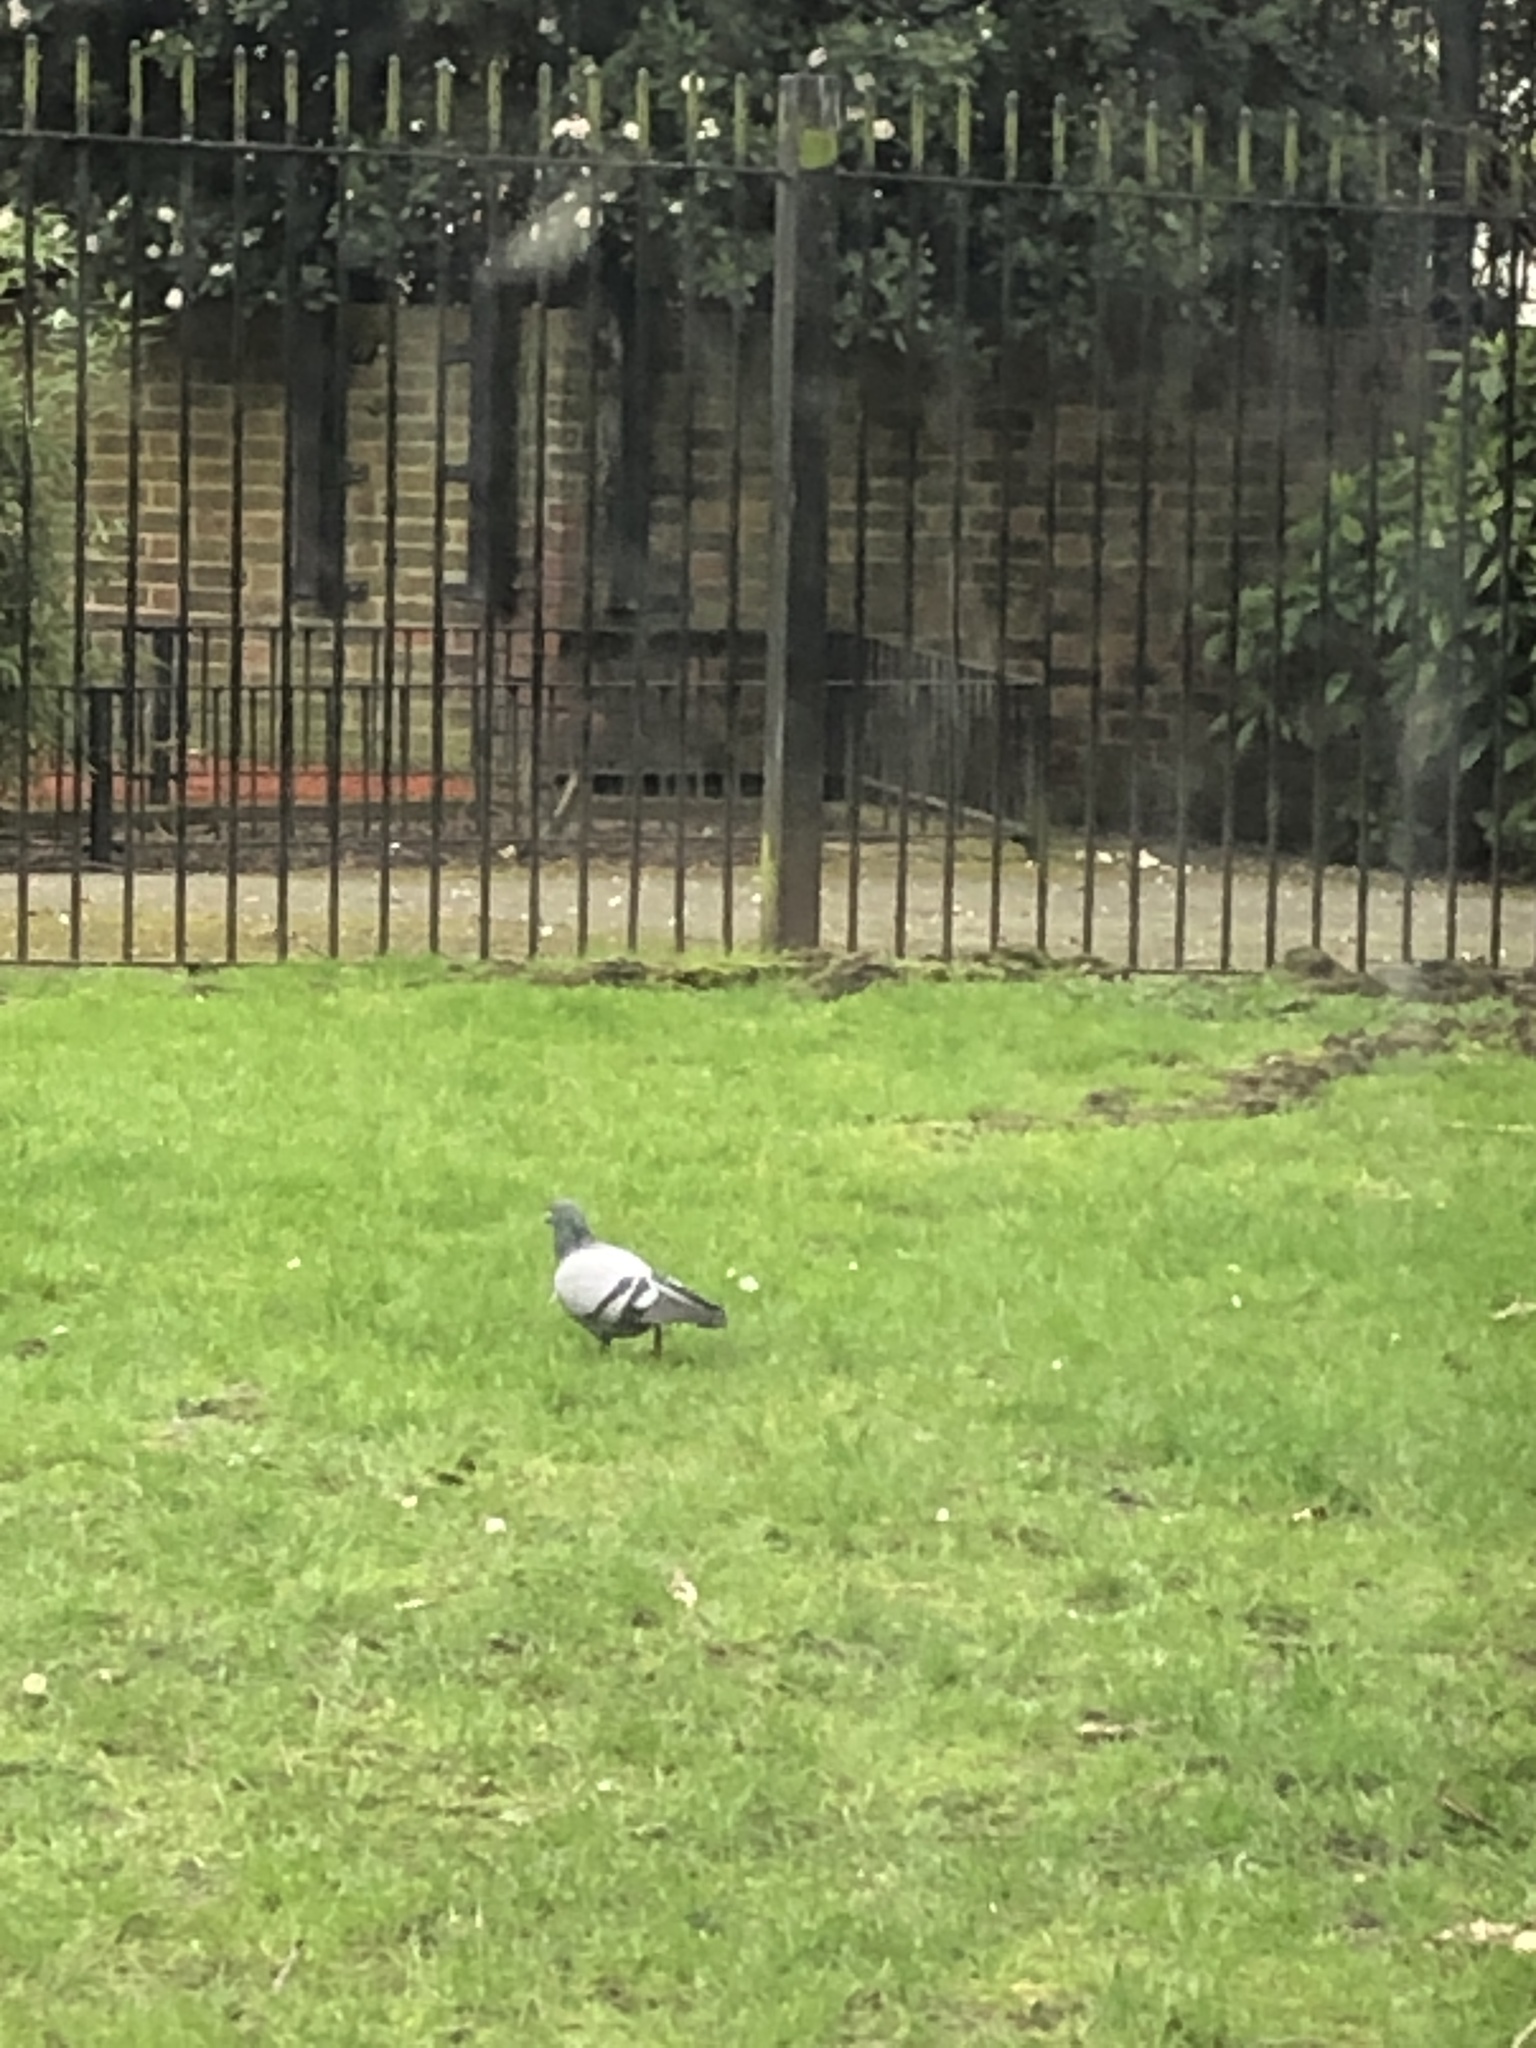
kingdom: Animalia
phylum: Chordata
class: Aves
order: Columbiformes
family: Columbidae
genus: Columba
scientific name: Columba livia
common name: Rock pigeon
